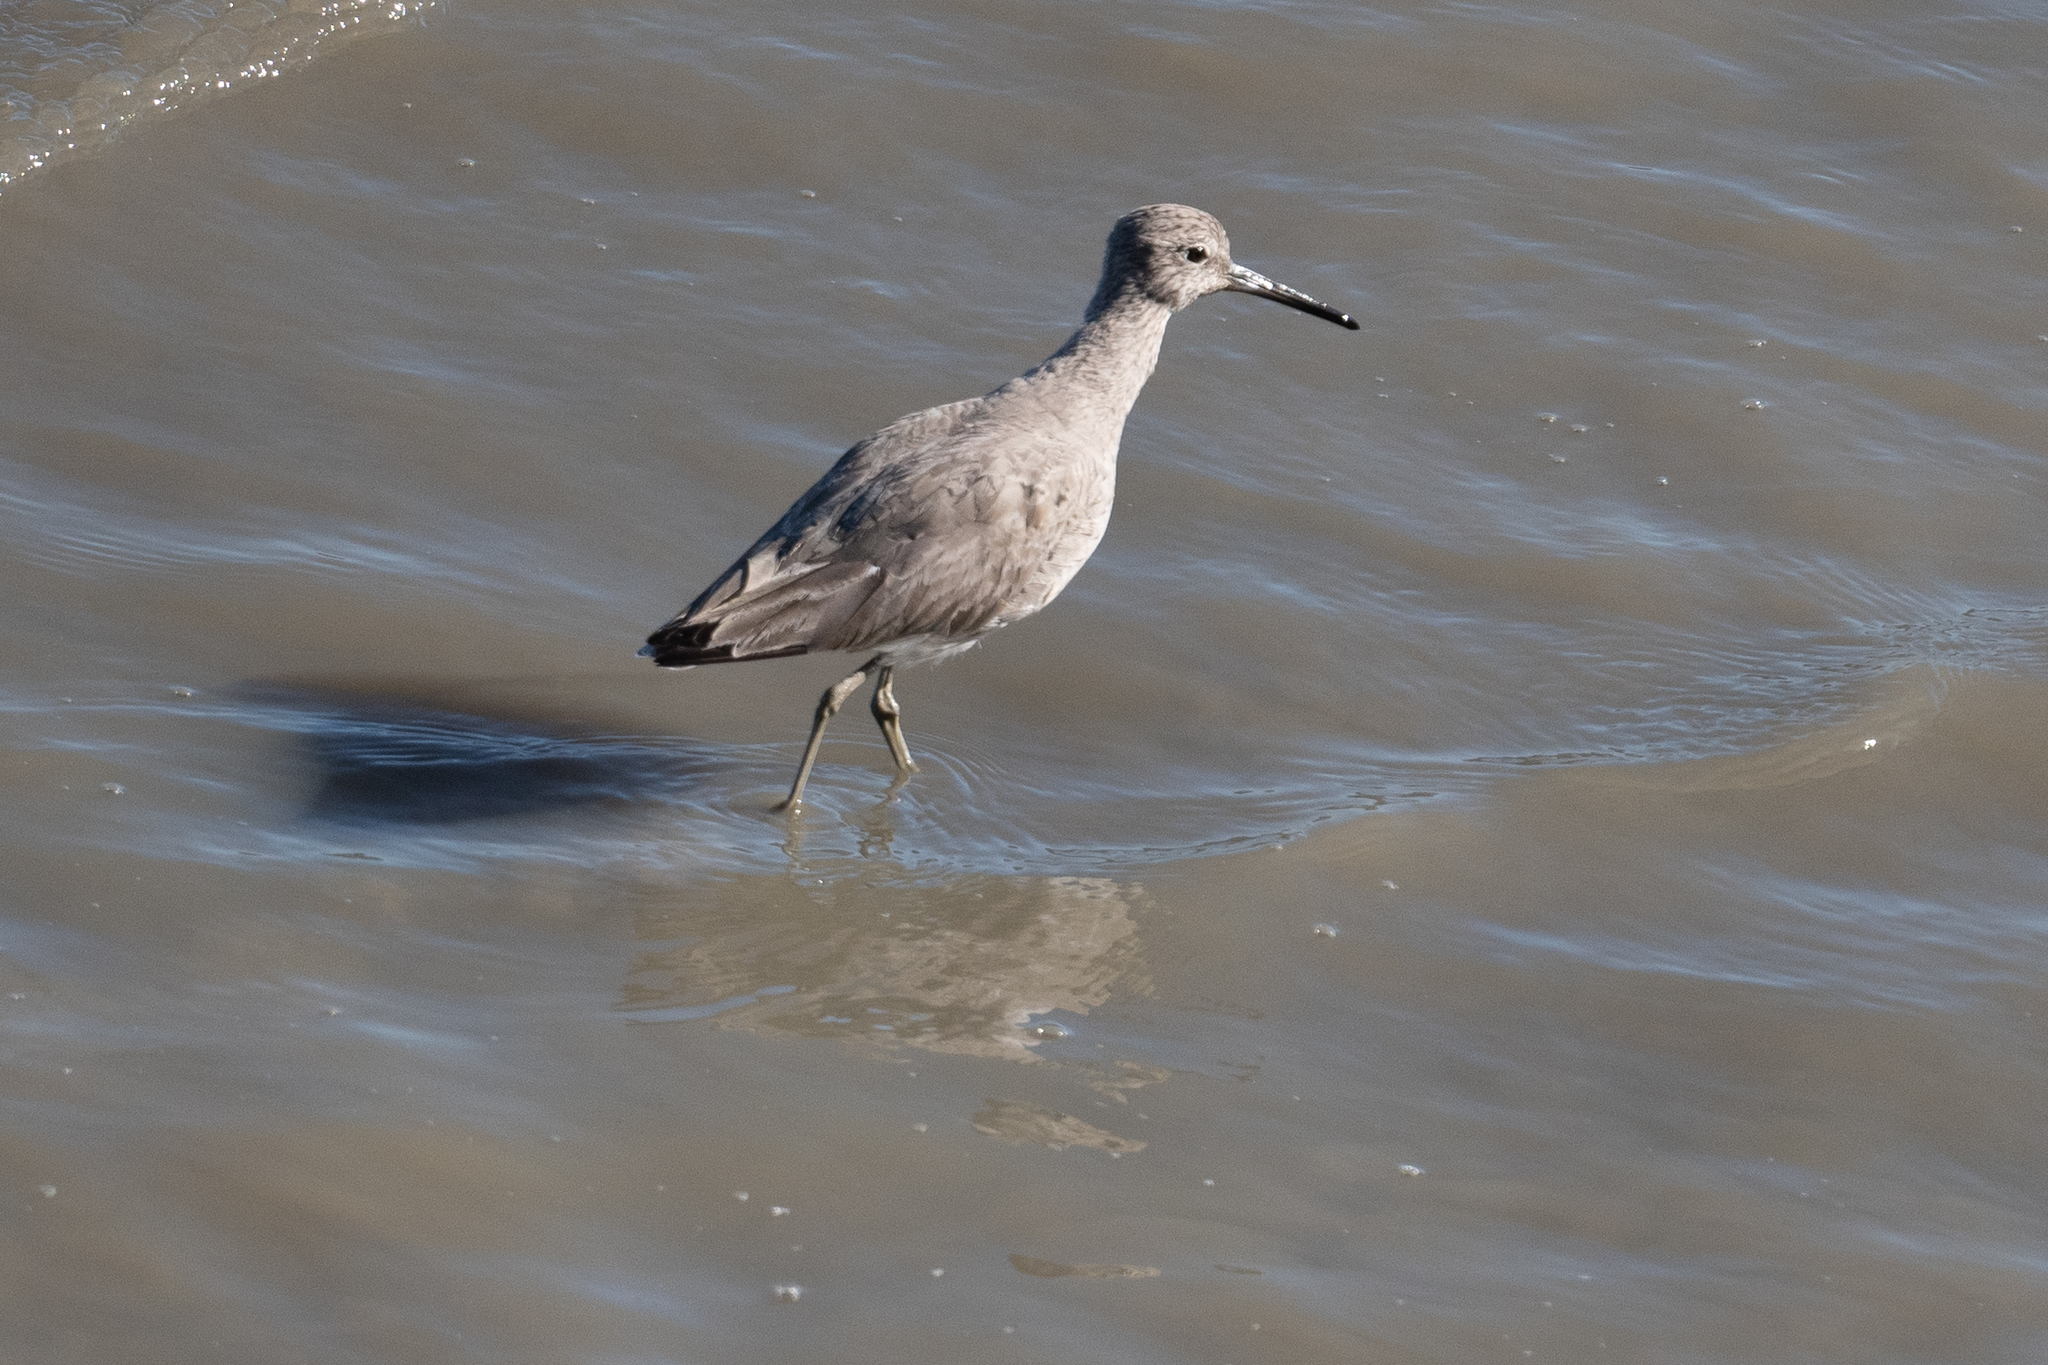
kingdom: Animalia
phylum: Chordata
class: Aves
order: Charadriiformes
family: Scolopacidae
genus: Tringa
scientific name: Tringa semipalmata
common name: Willet
